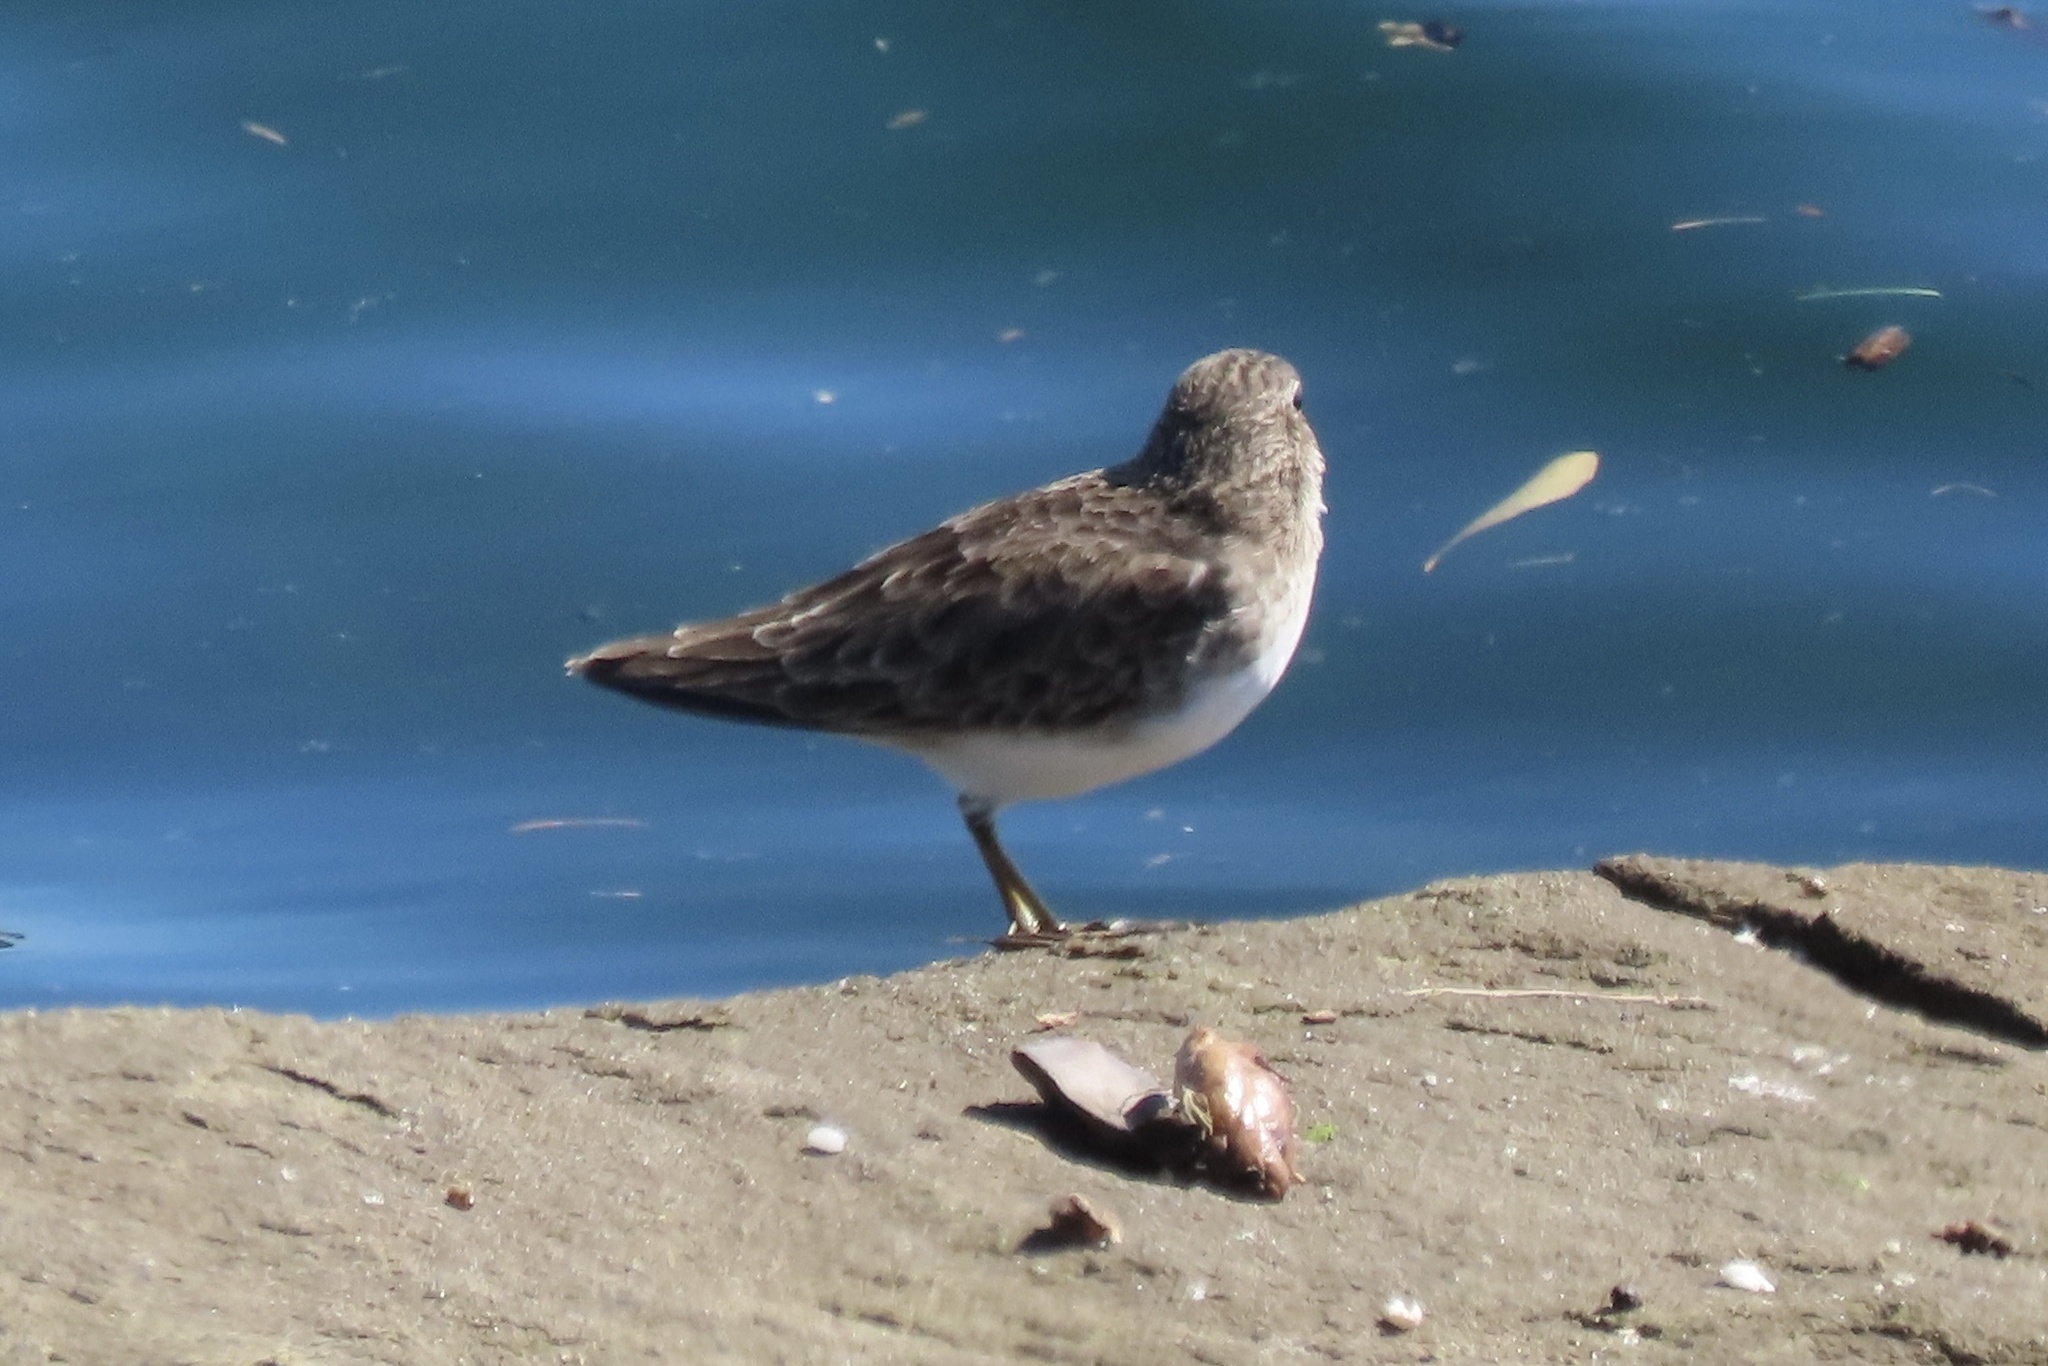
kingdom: Animalia
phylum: Chordata
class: Aves
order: Charadriiformes
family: Scolopacidae
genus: Calidris
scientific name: Calidris minutilla
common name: Least sandpiper
